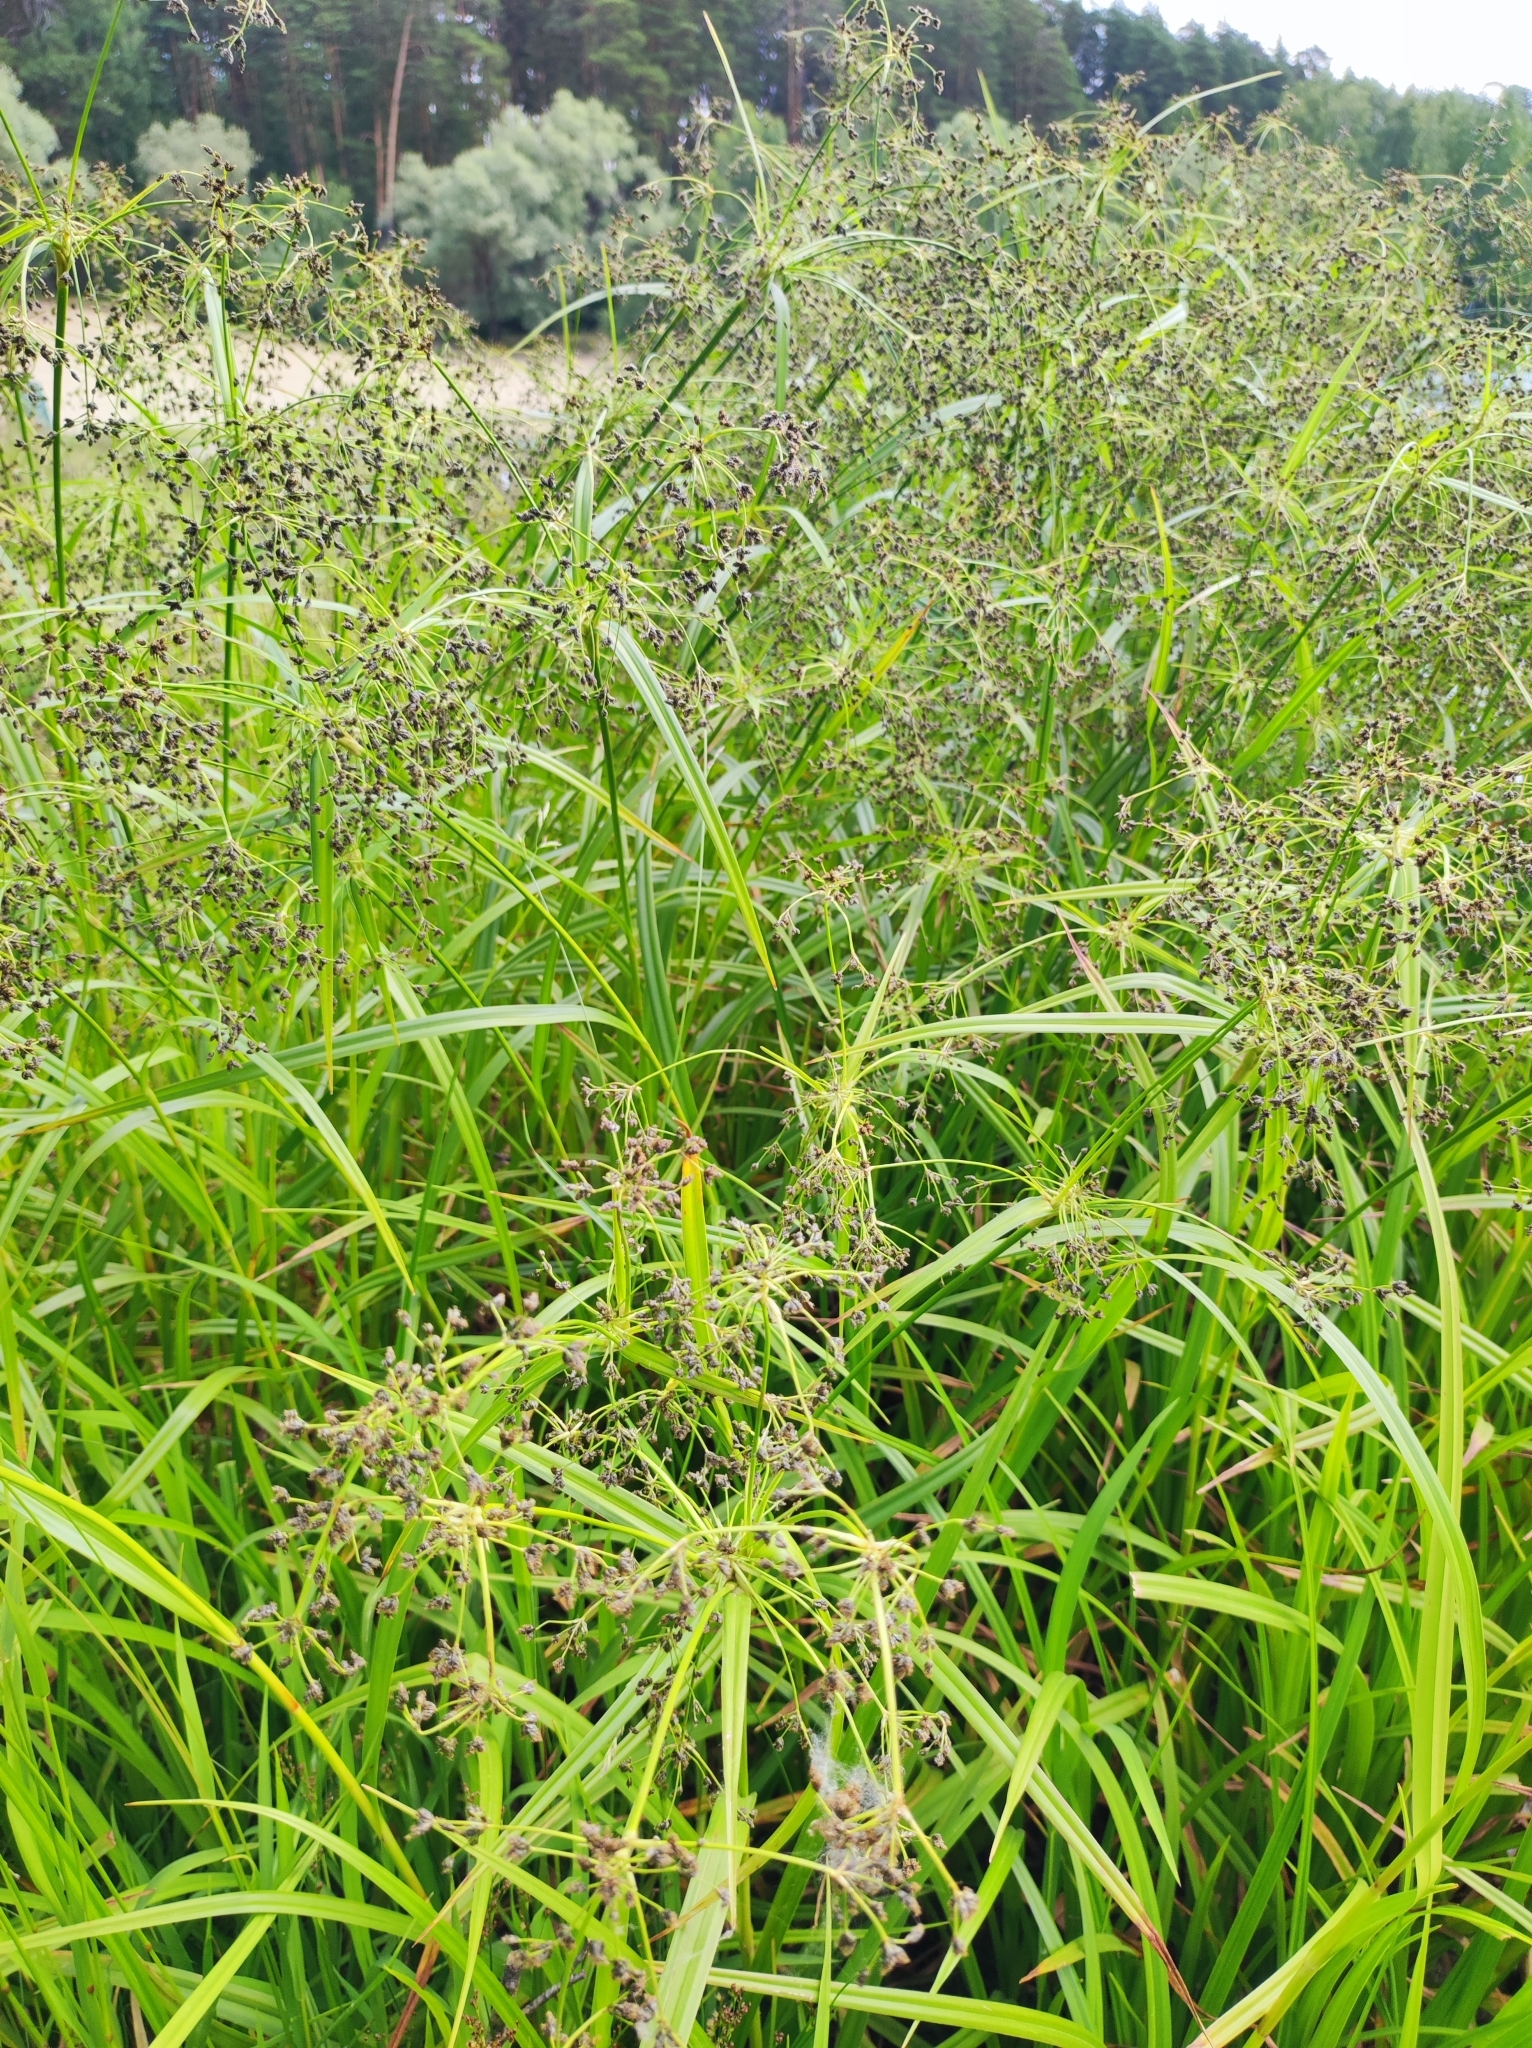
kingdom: Plantae
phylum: Tracheophyta
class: Liliopsida
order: Poales
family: Cyperaceae
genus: Scirpus
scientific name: Scirpus sylvaticus
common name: Wood club-rush
